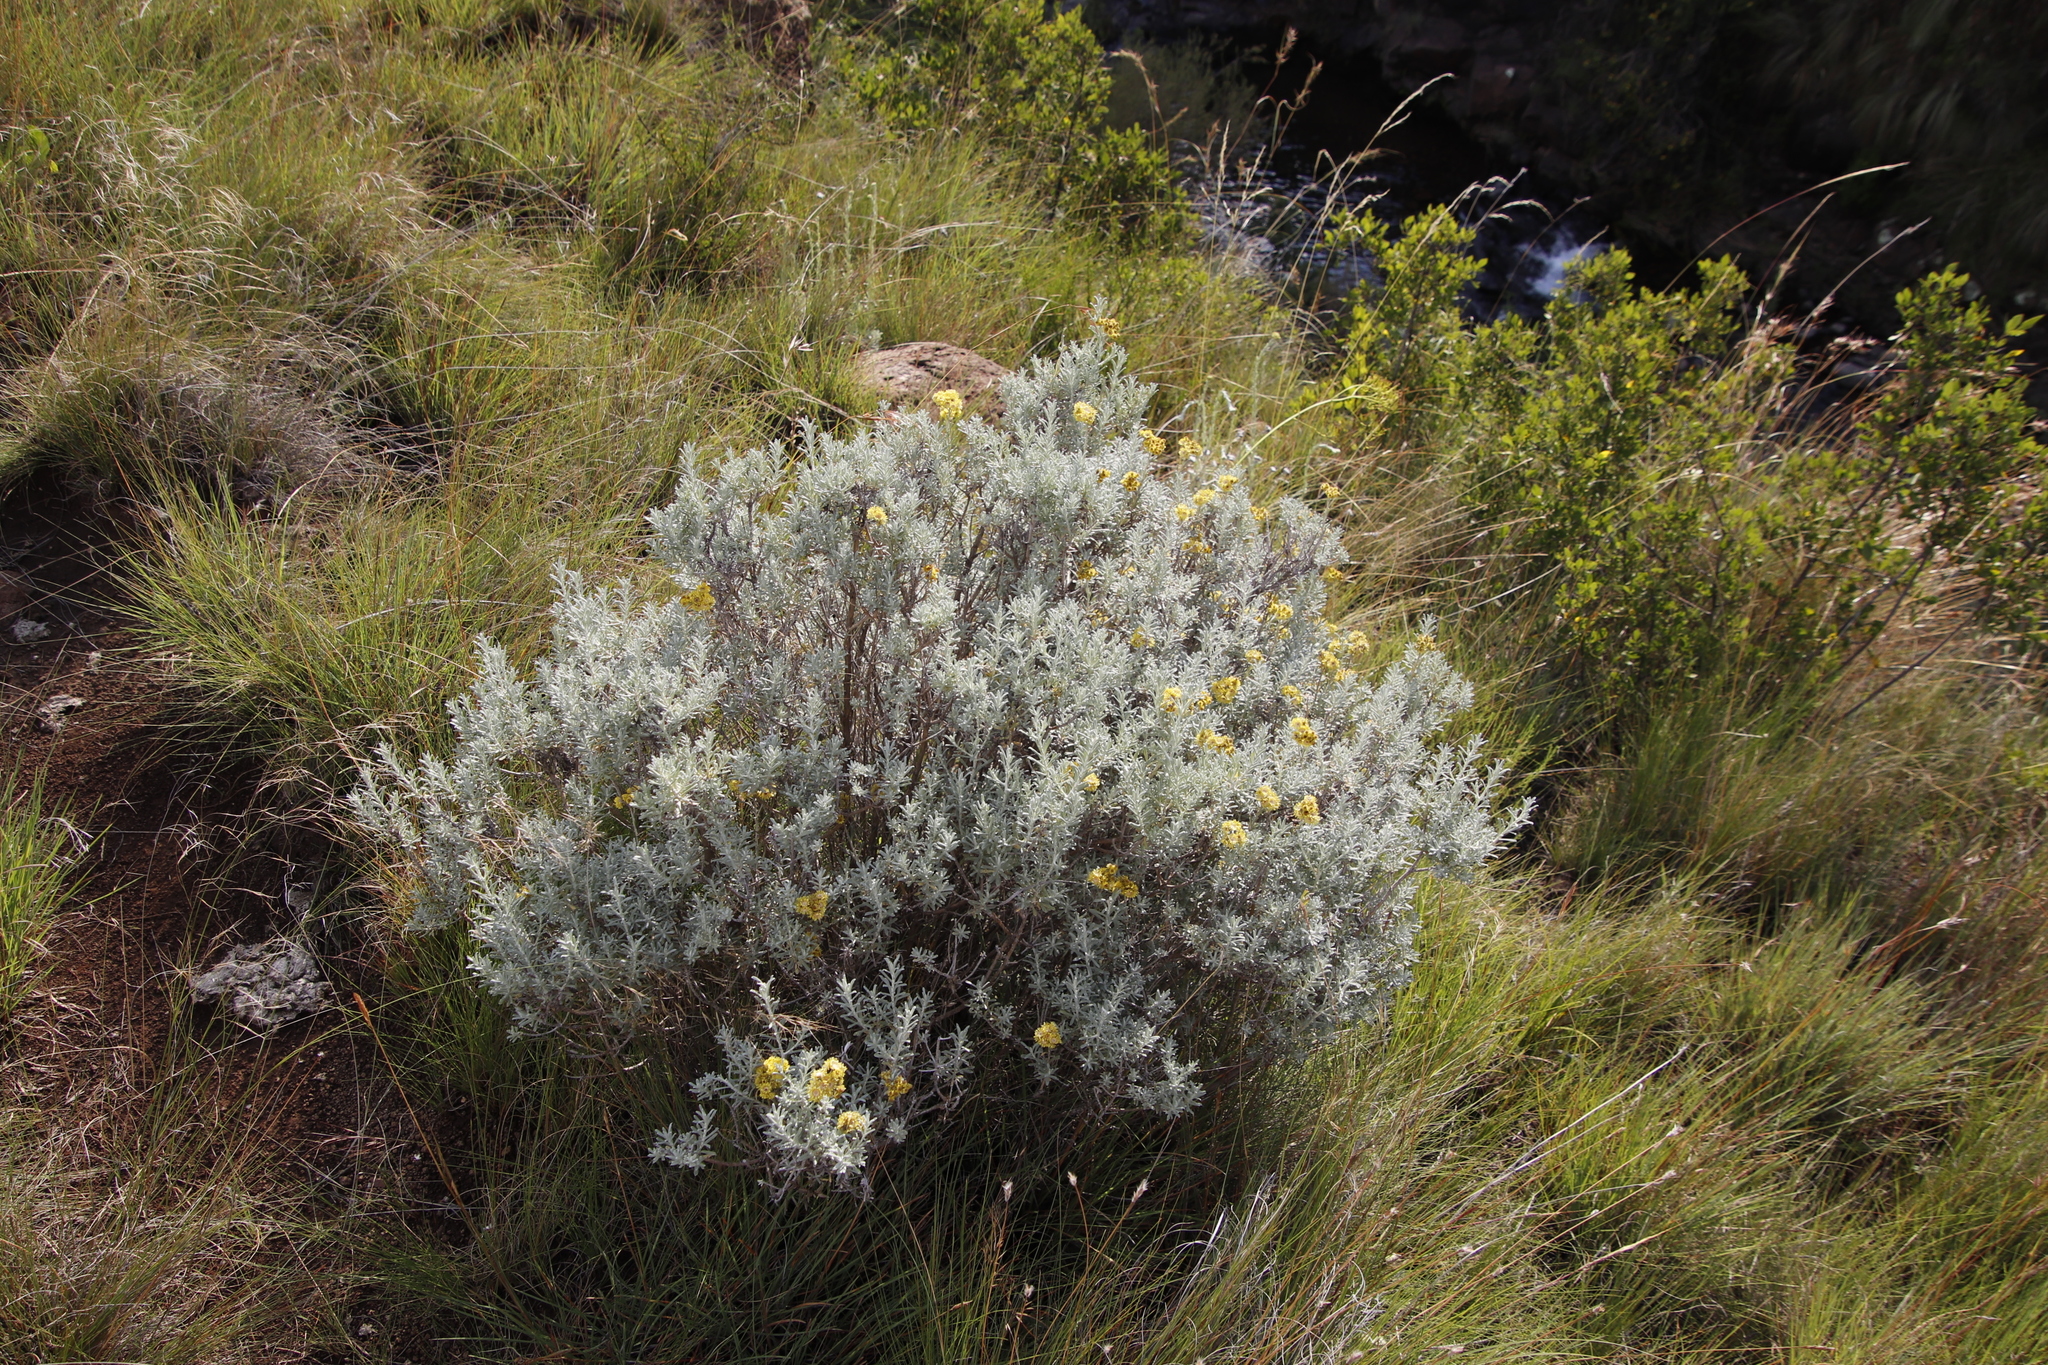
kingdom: Plantae
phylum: Tracheophyta
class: Magnoliopsida
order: Asterales
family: Asteraceae
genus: Helichrysum
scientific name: Helichrysum trilineatum
